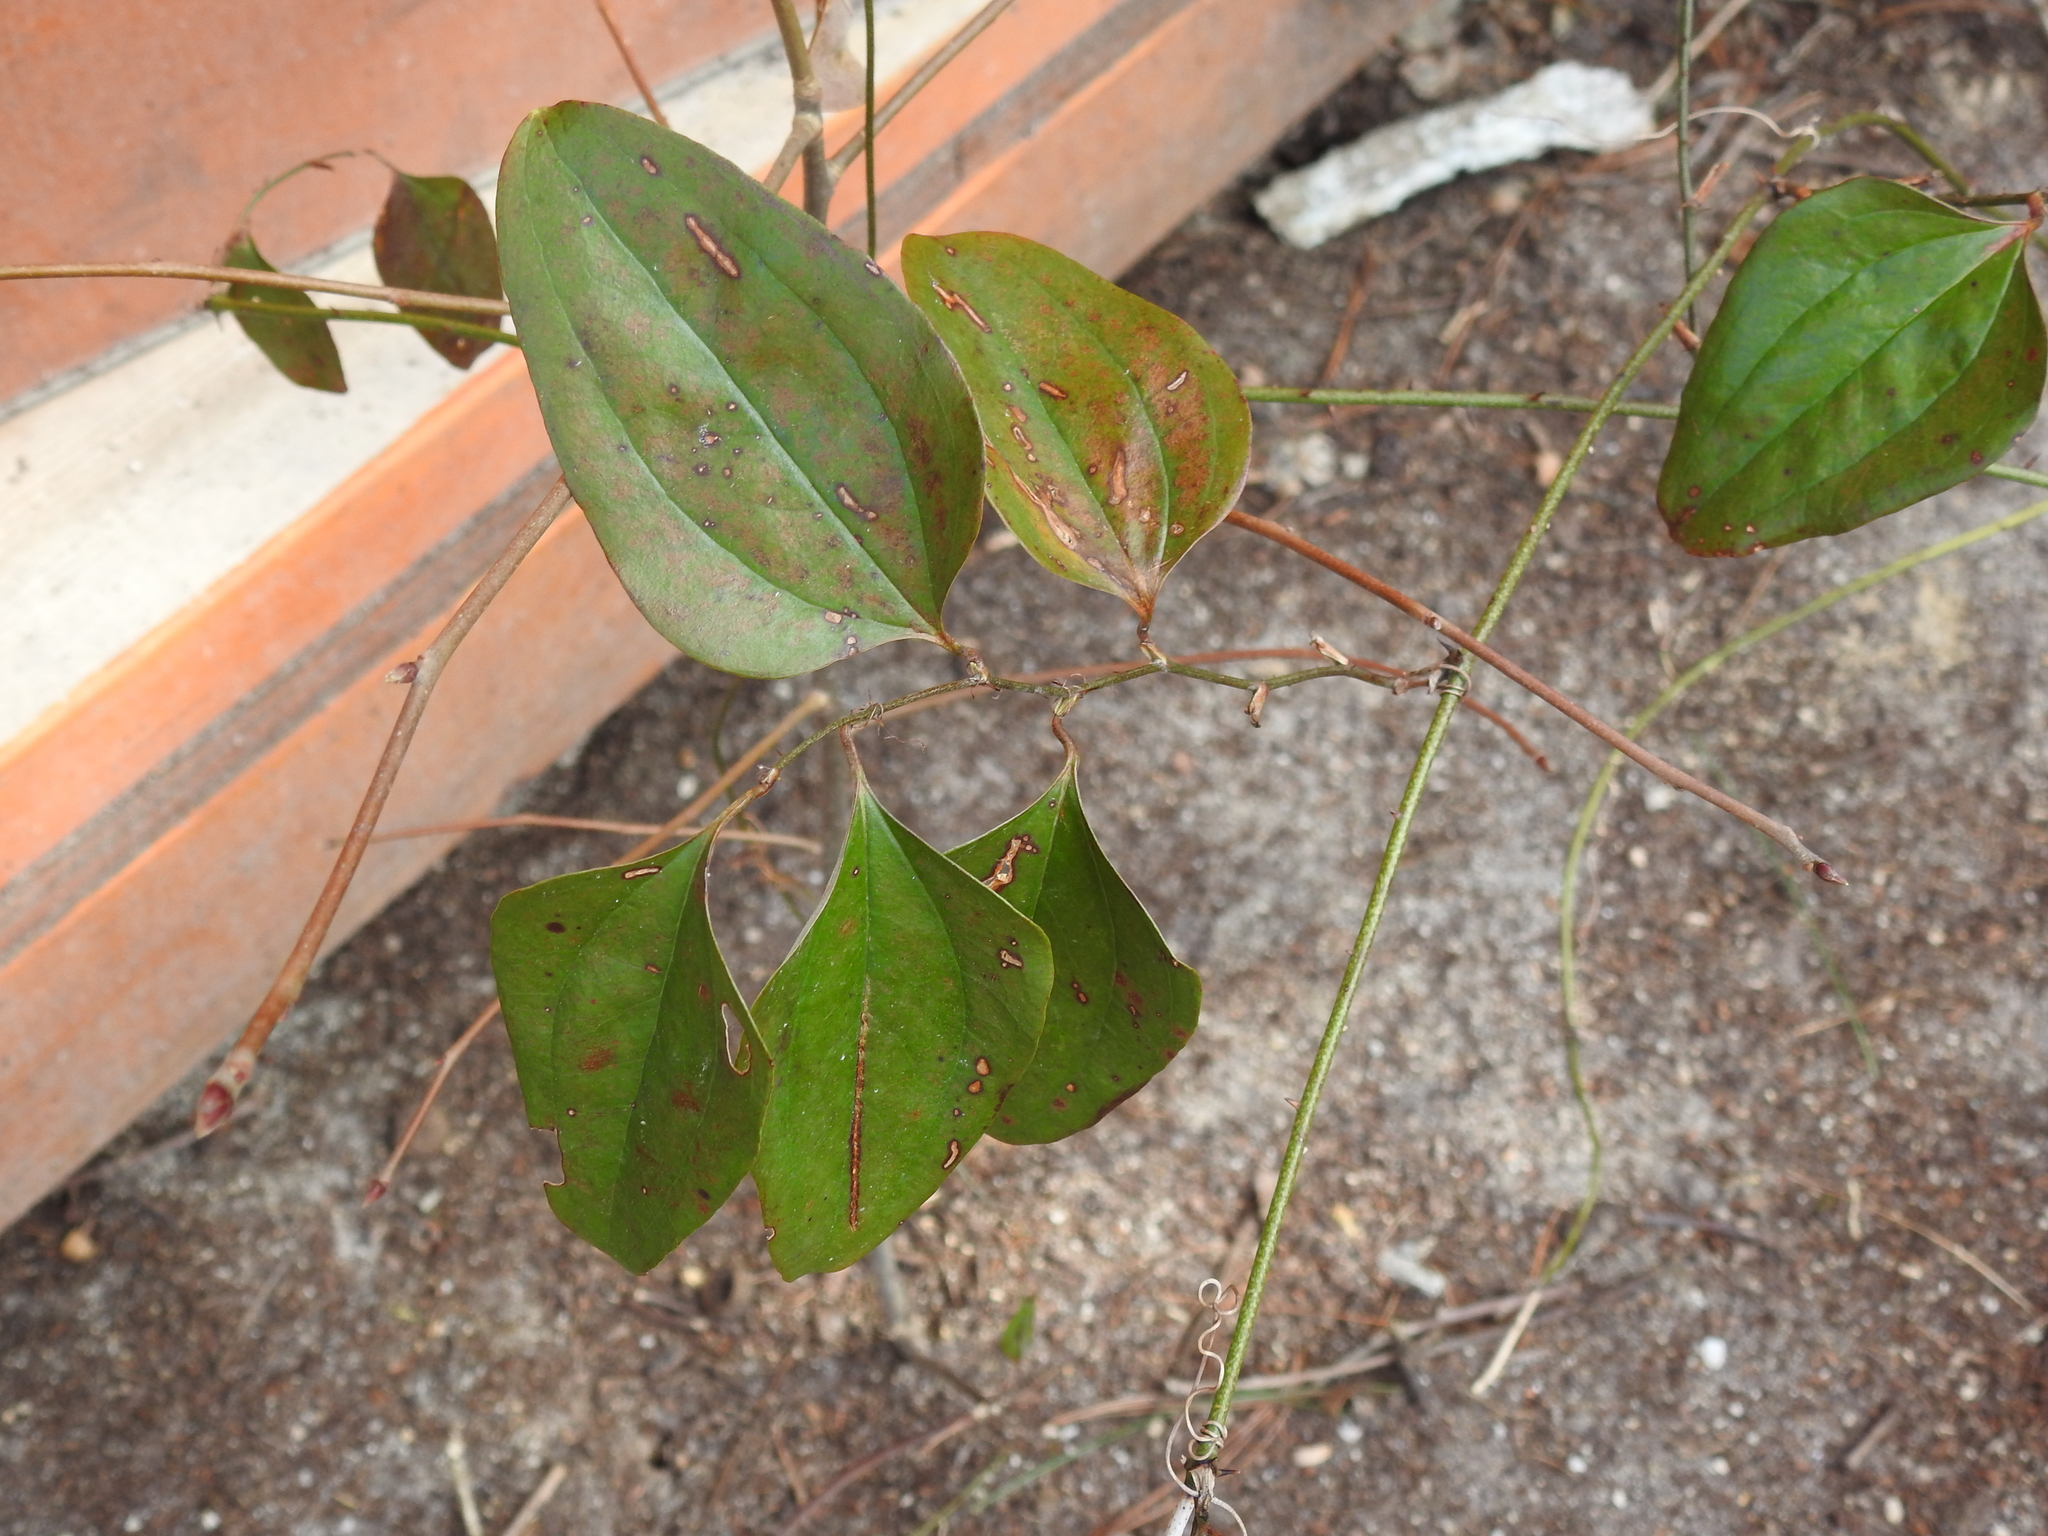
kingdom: Plantae
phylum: Tracheophyta
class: Liliopsida
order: Liliales
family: Smilacaceae
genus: Smilax
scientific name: Smilax glauca
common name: Cat greenbrier
